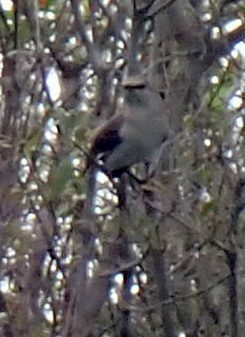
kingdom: Animalia
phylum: Chordata
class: Aves
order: Passeriformes
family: Mimidae
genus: Mimus
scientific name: Mimus polyglottos
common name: Northern mockingbird
